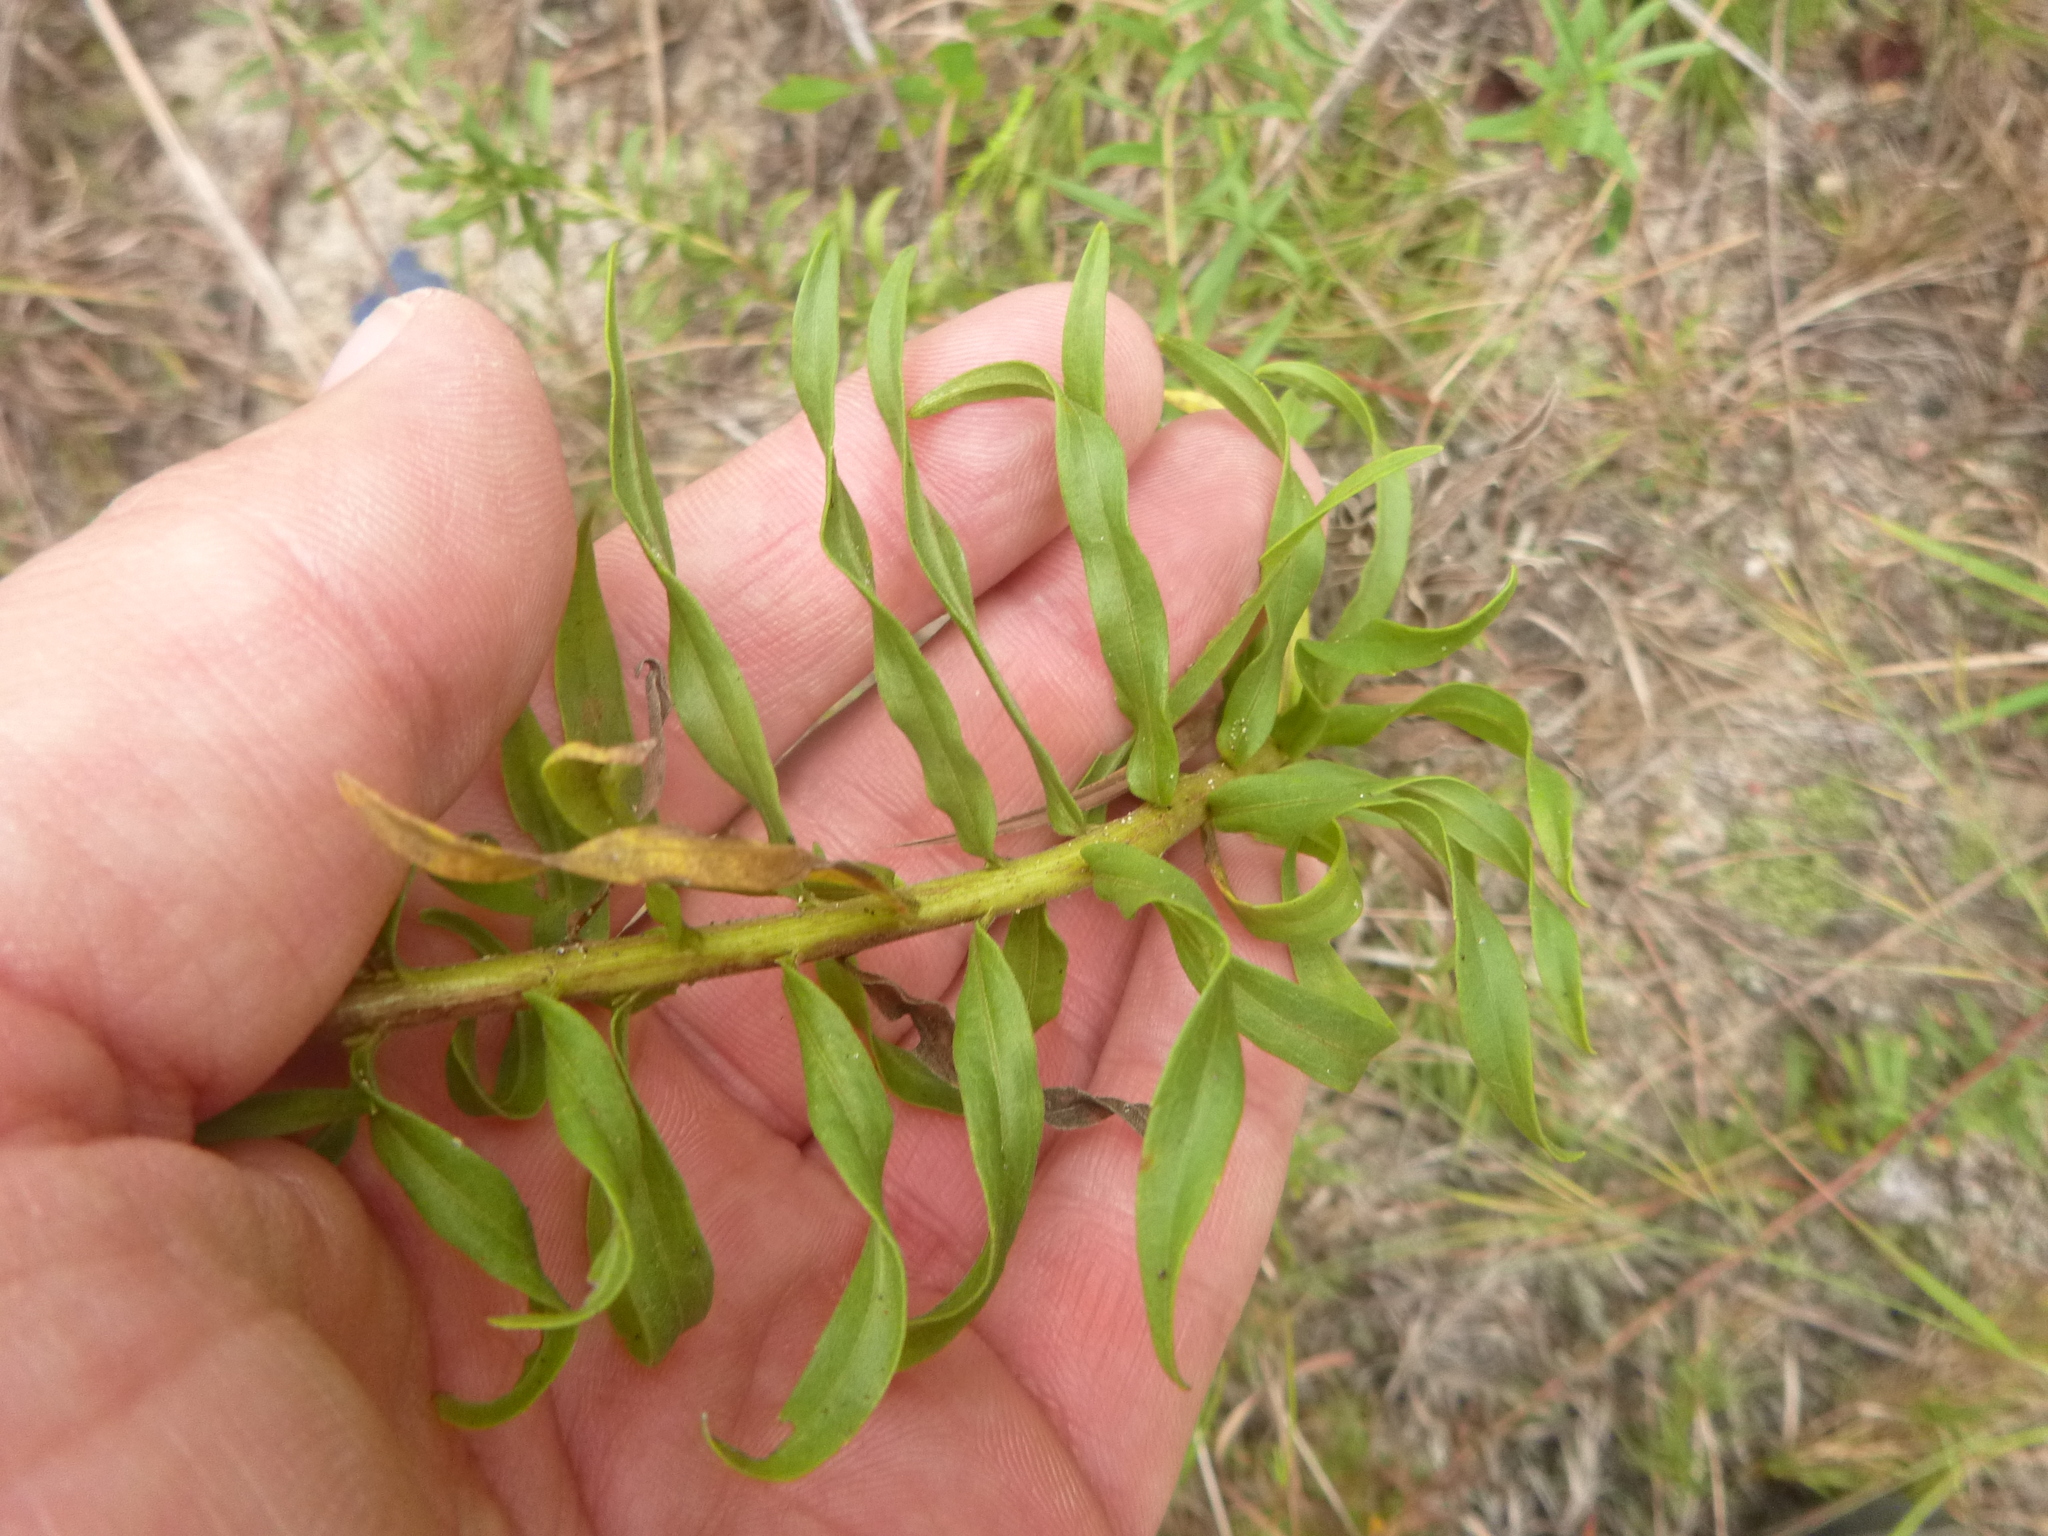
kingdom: Plantae
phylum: Tracheophyta
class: Magnoliopsida
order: Asterales
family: Asteraceae
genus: Solidago
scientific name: Solidago tortifolia
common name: Twisted-leaf goldenrod
